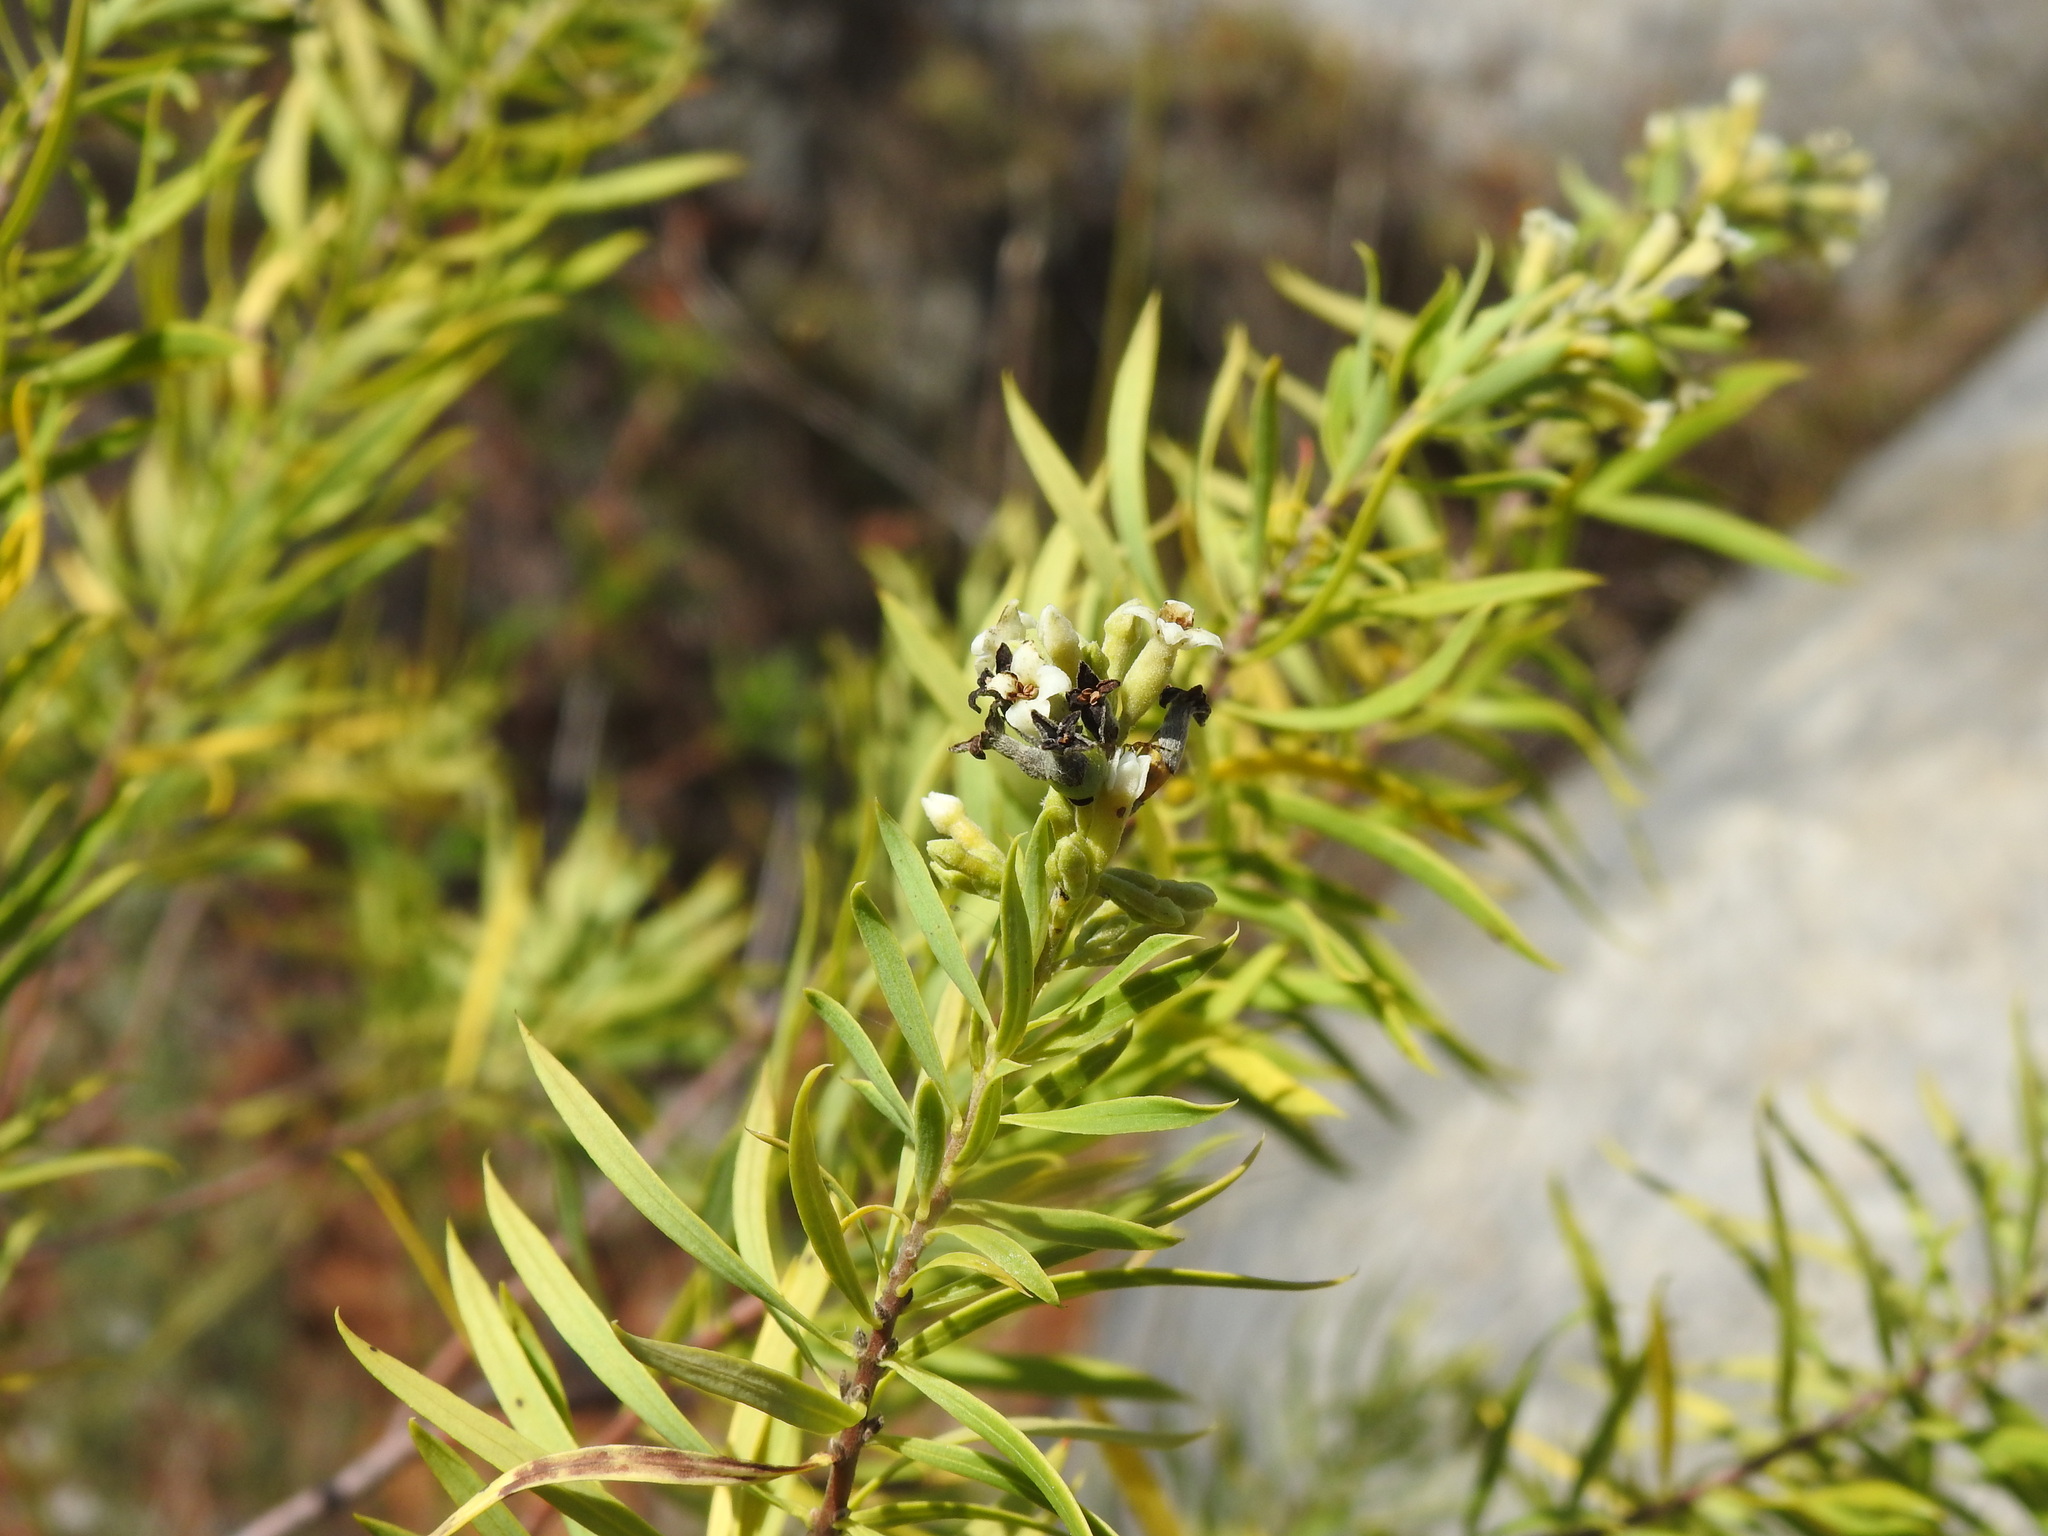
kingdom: Plantae
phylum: Tracheophyta
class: Magnoliopsida
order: Malvales
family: Thymelaeaceae
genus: Daphne
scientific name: Daphne gnidium
